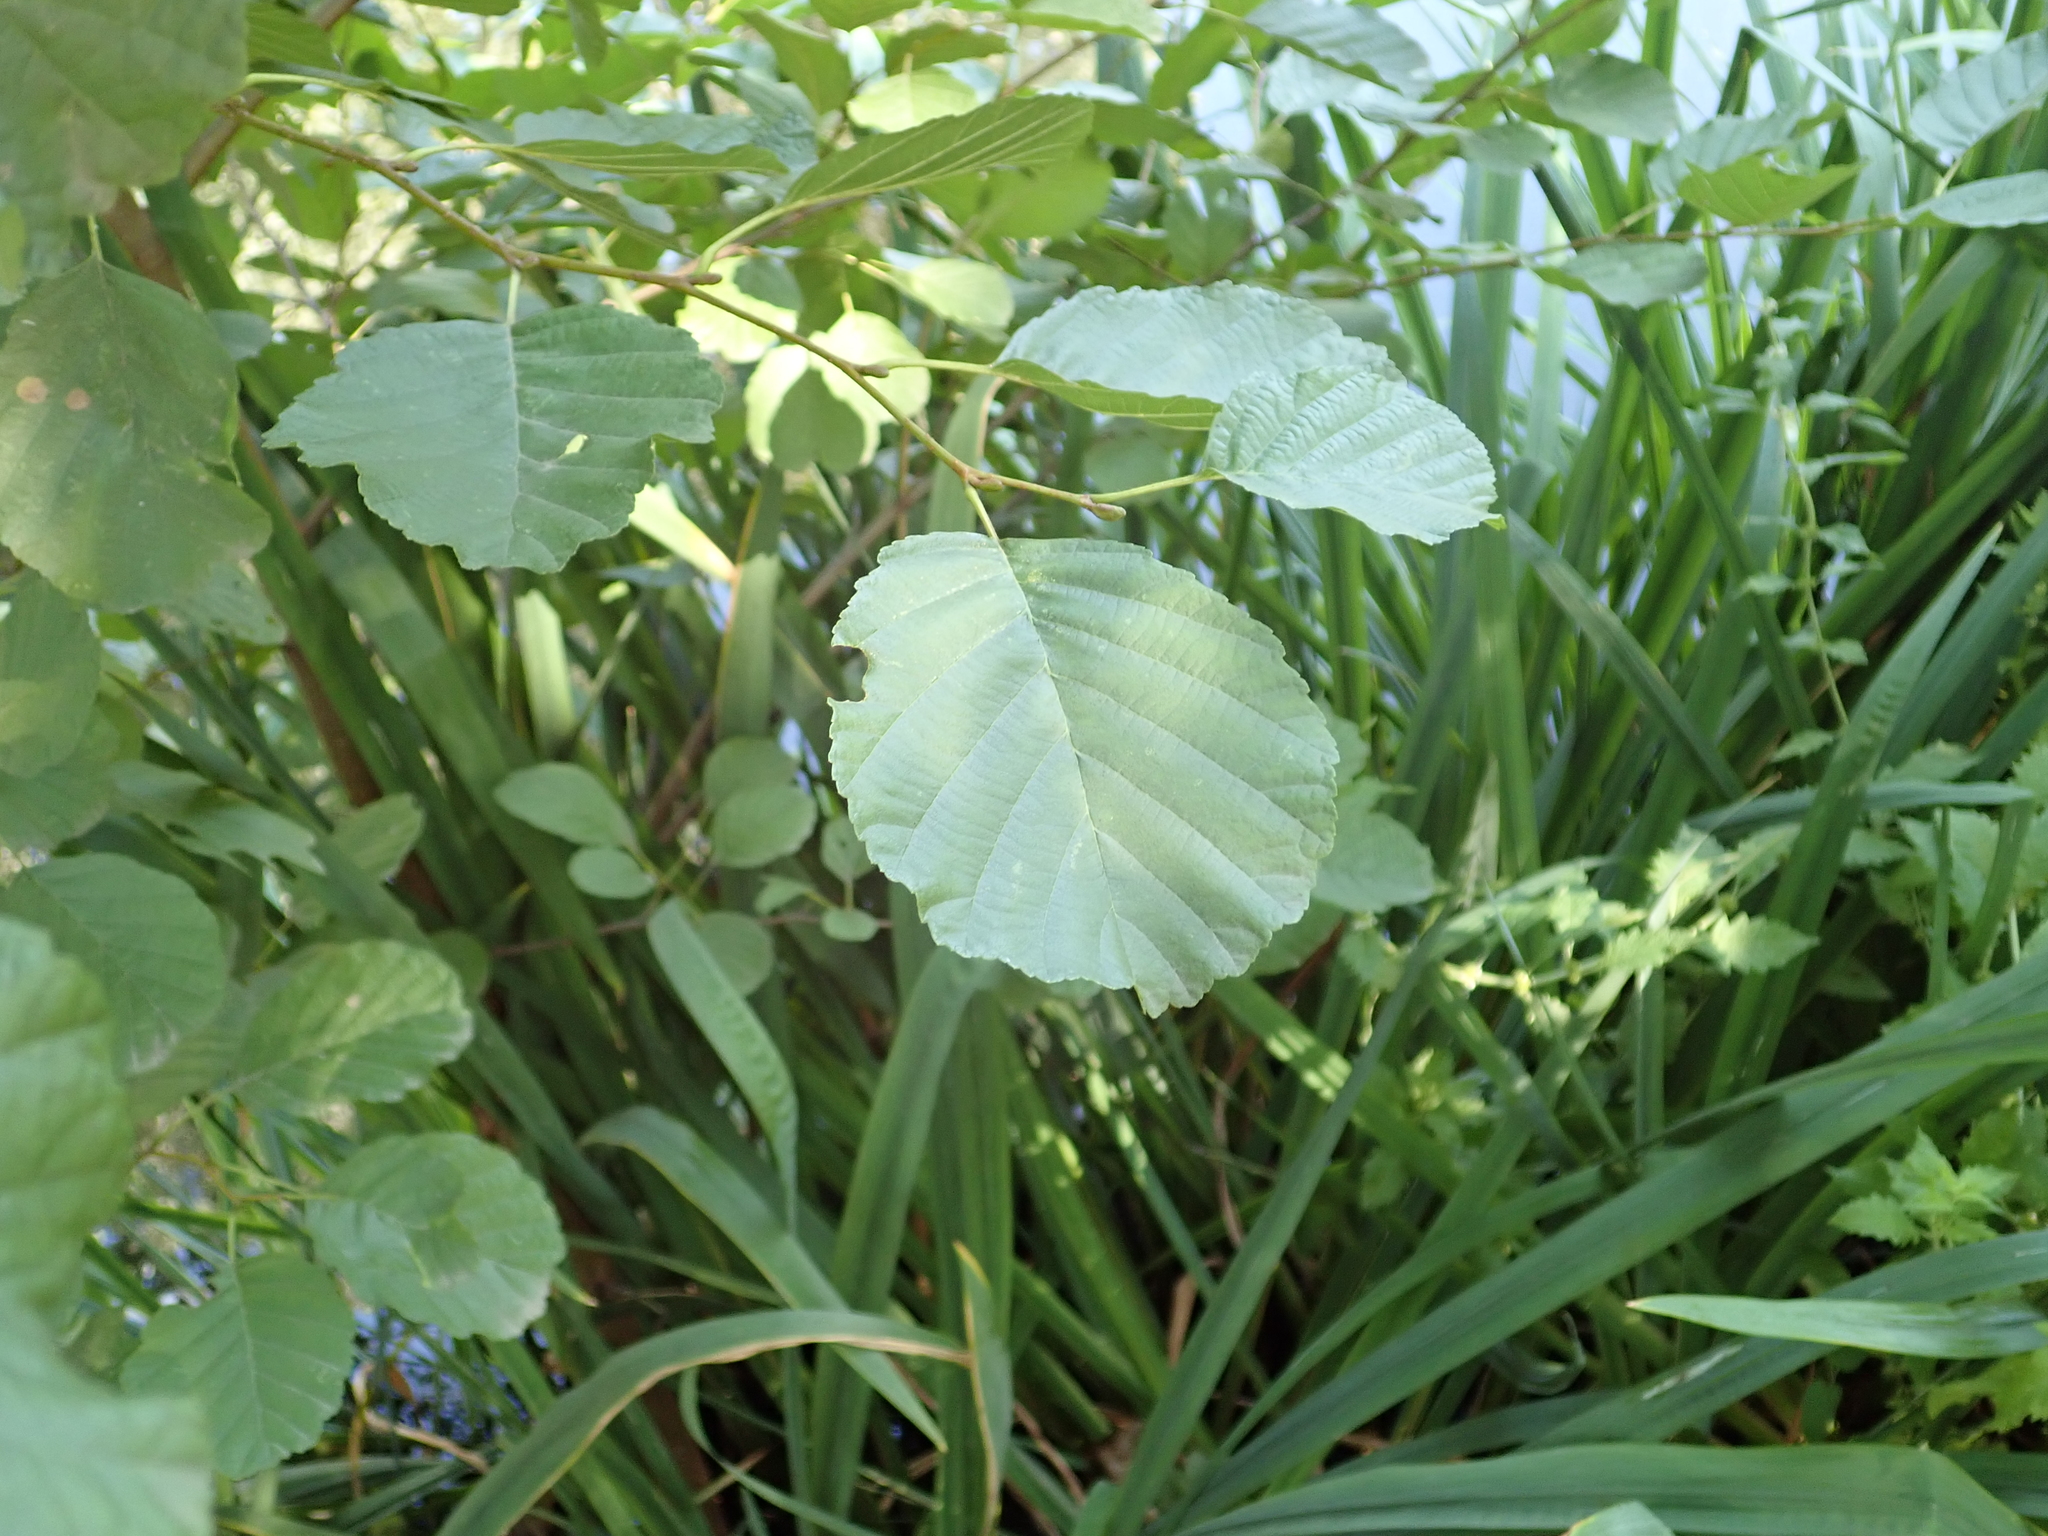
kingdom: Plantae
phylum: Tracheophyta
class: Magnoliopsida
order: Fagales
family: Betulaceae
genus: Alnus
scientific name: Alnus glutinosa
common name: Black alder
